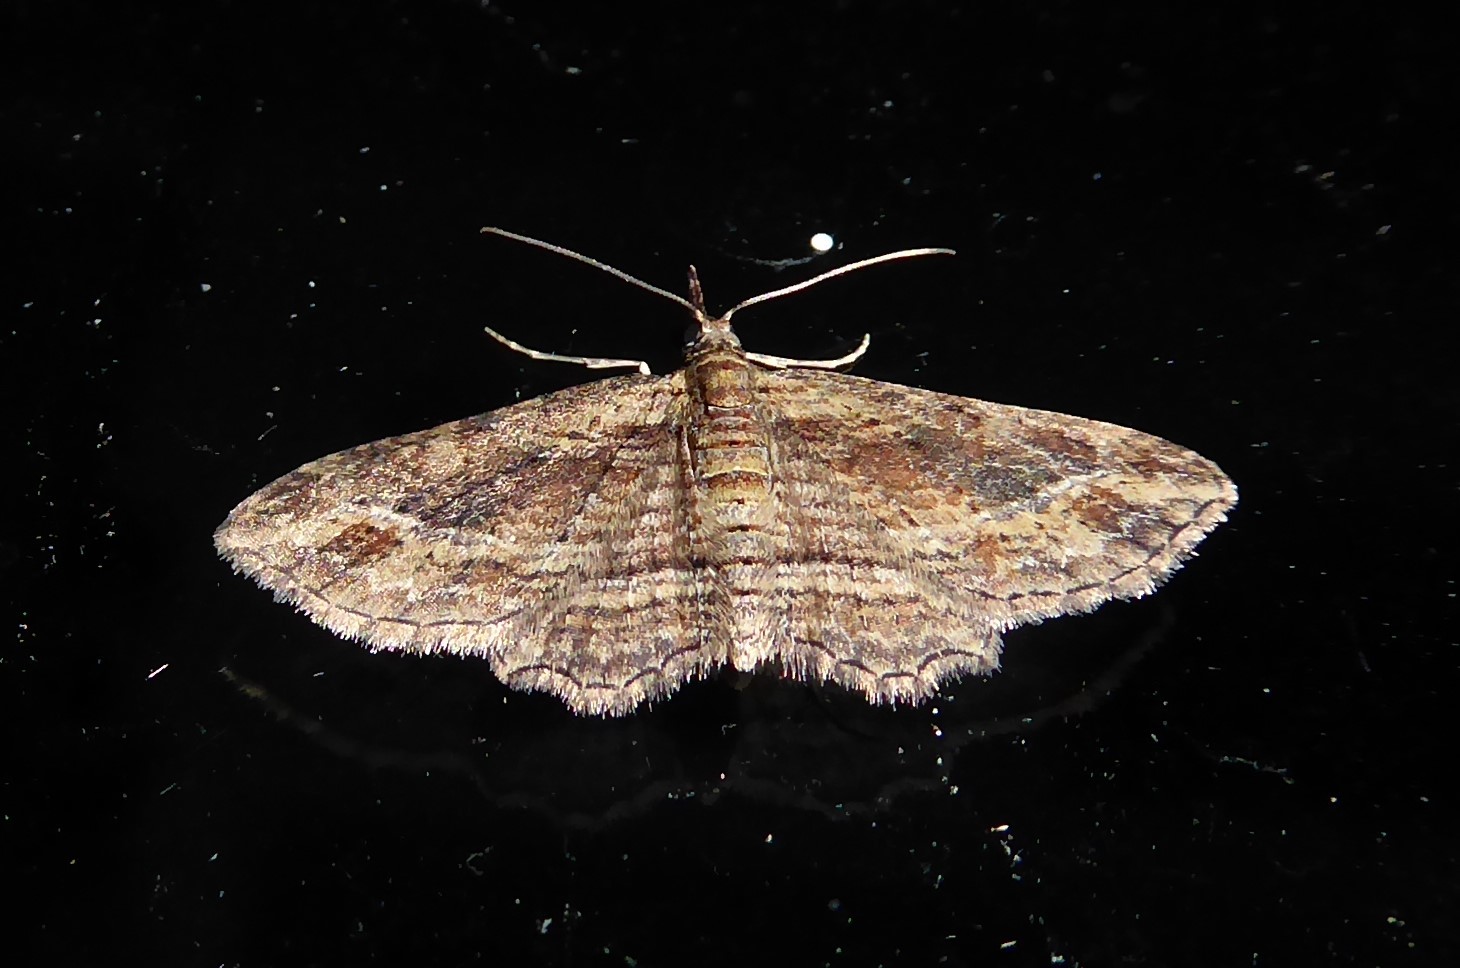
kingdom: Animalia
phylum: Arthropoda
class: Insecta
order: Lepidoptera
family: Geometridae
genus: Chloroclystis
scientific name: Chloroclystis filata
